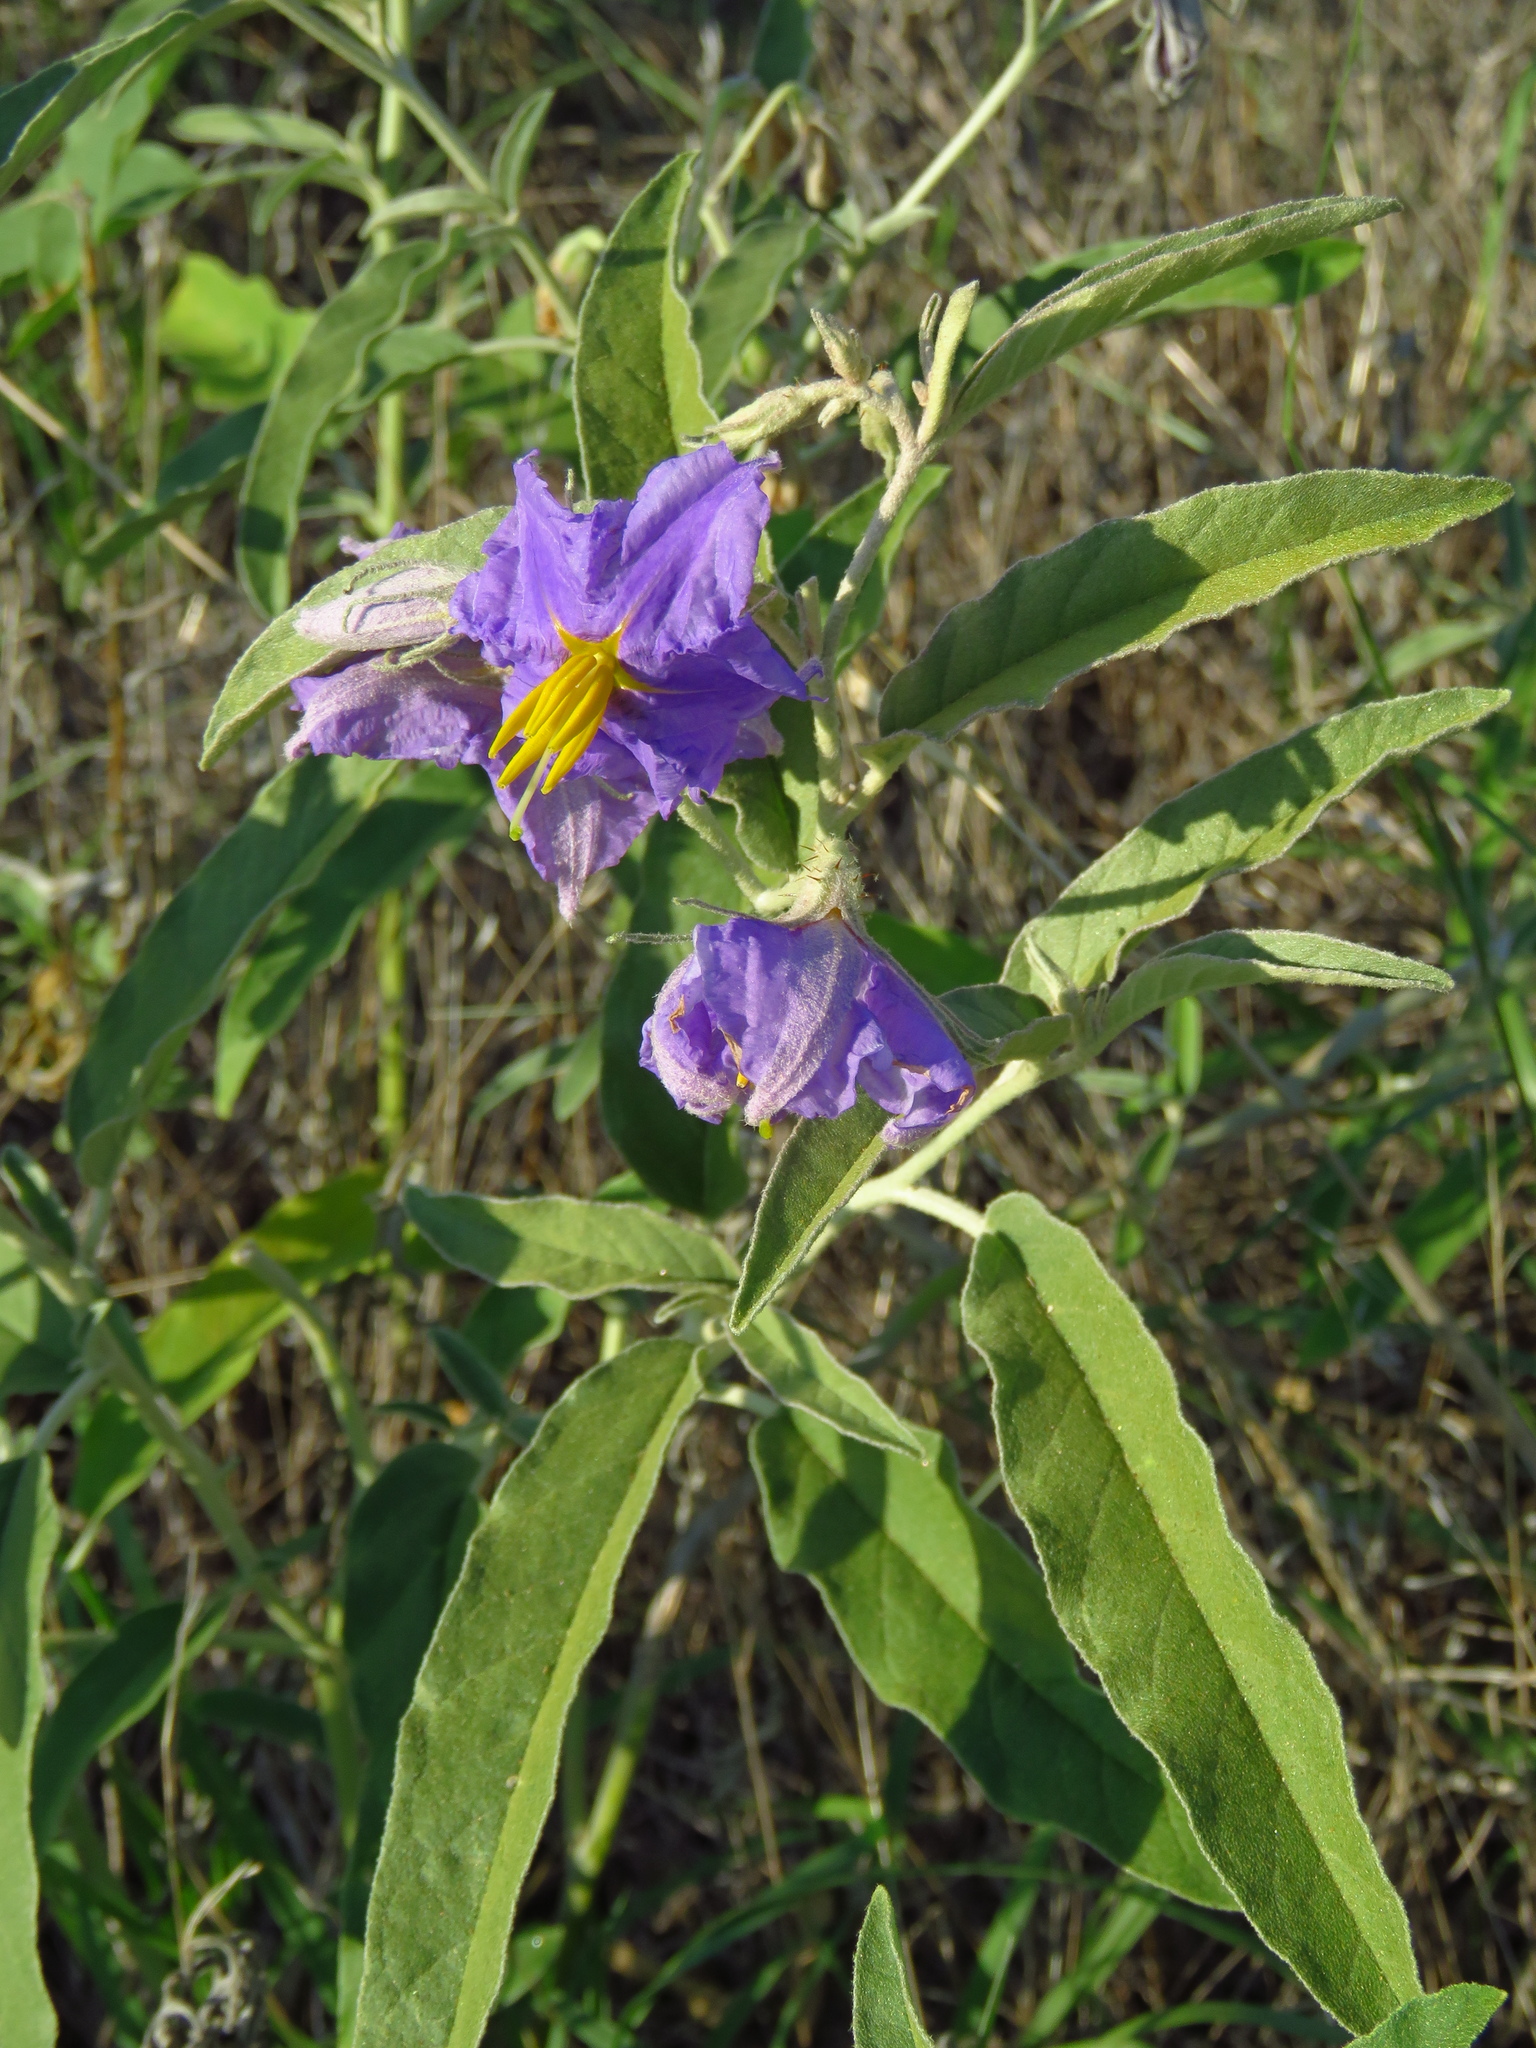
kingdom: Plantae
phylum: Tracheophyta
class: Magnoliopsida
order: Solanales
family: Solanaceae
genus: Solanum
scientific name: Solanum elaeagnifolium
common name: Silverleaf nightshade
